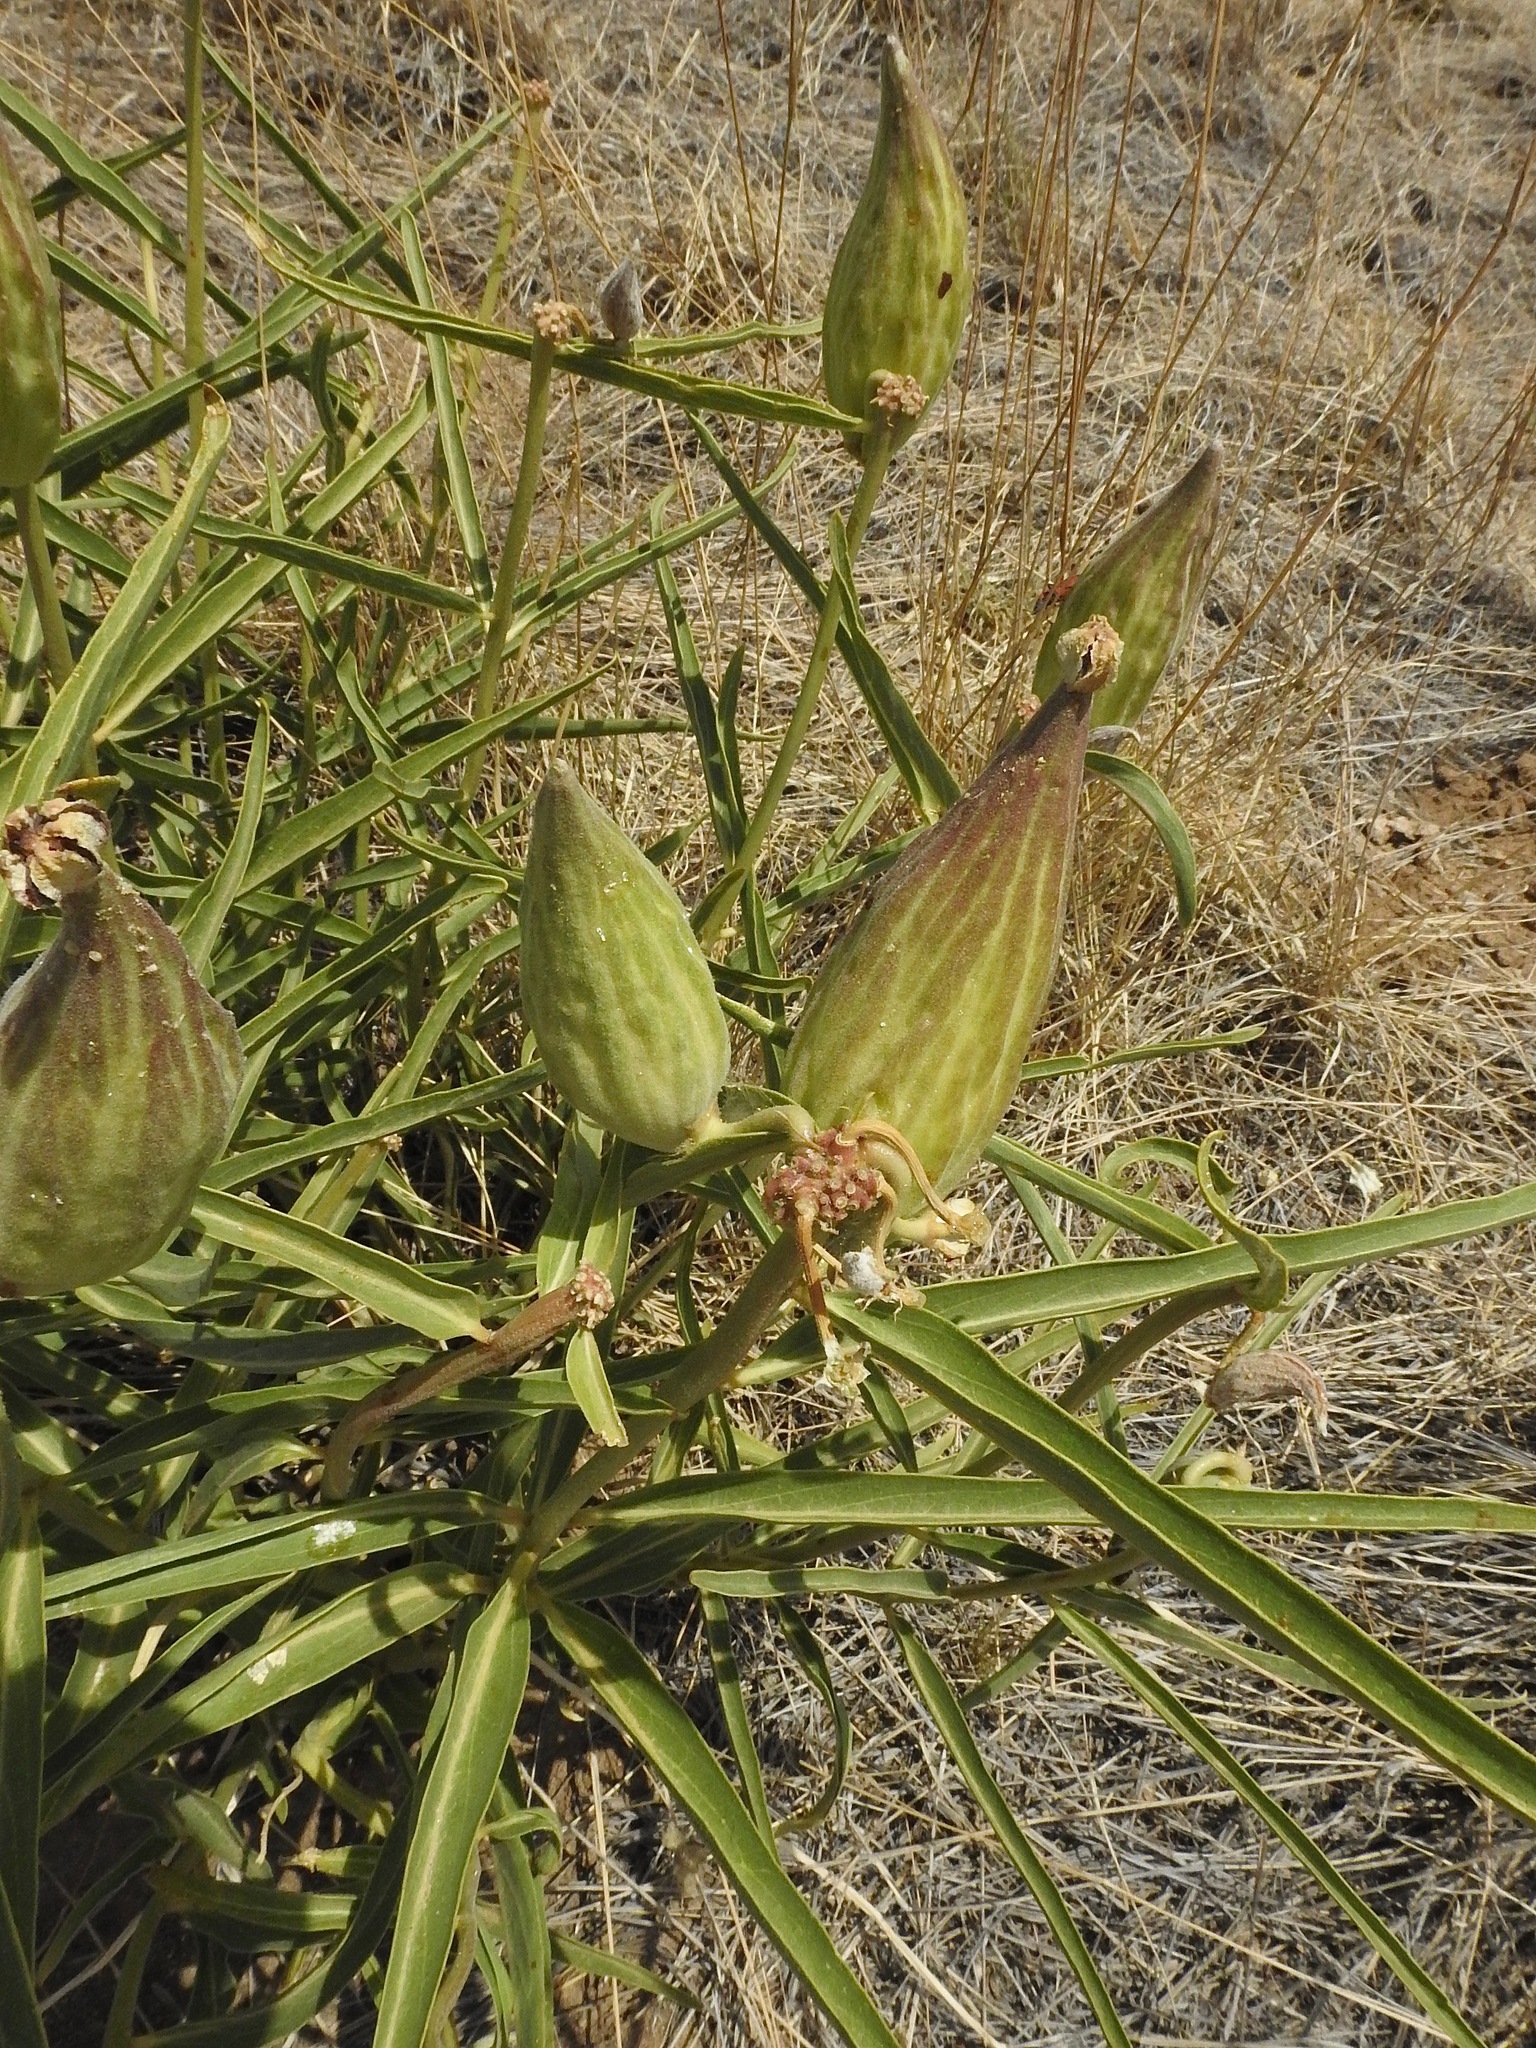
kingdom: Plantae
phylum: Tracheophyta
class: Magnoliopsida
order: Gentianales
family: Apocynaceae
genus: Asclepias
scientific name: Asclepias asperula
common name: Antelope horns
